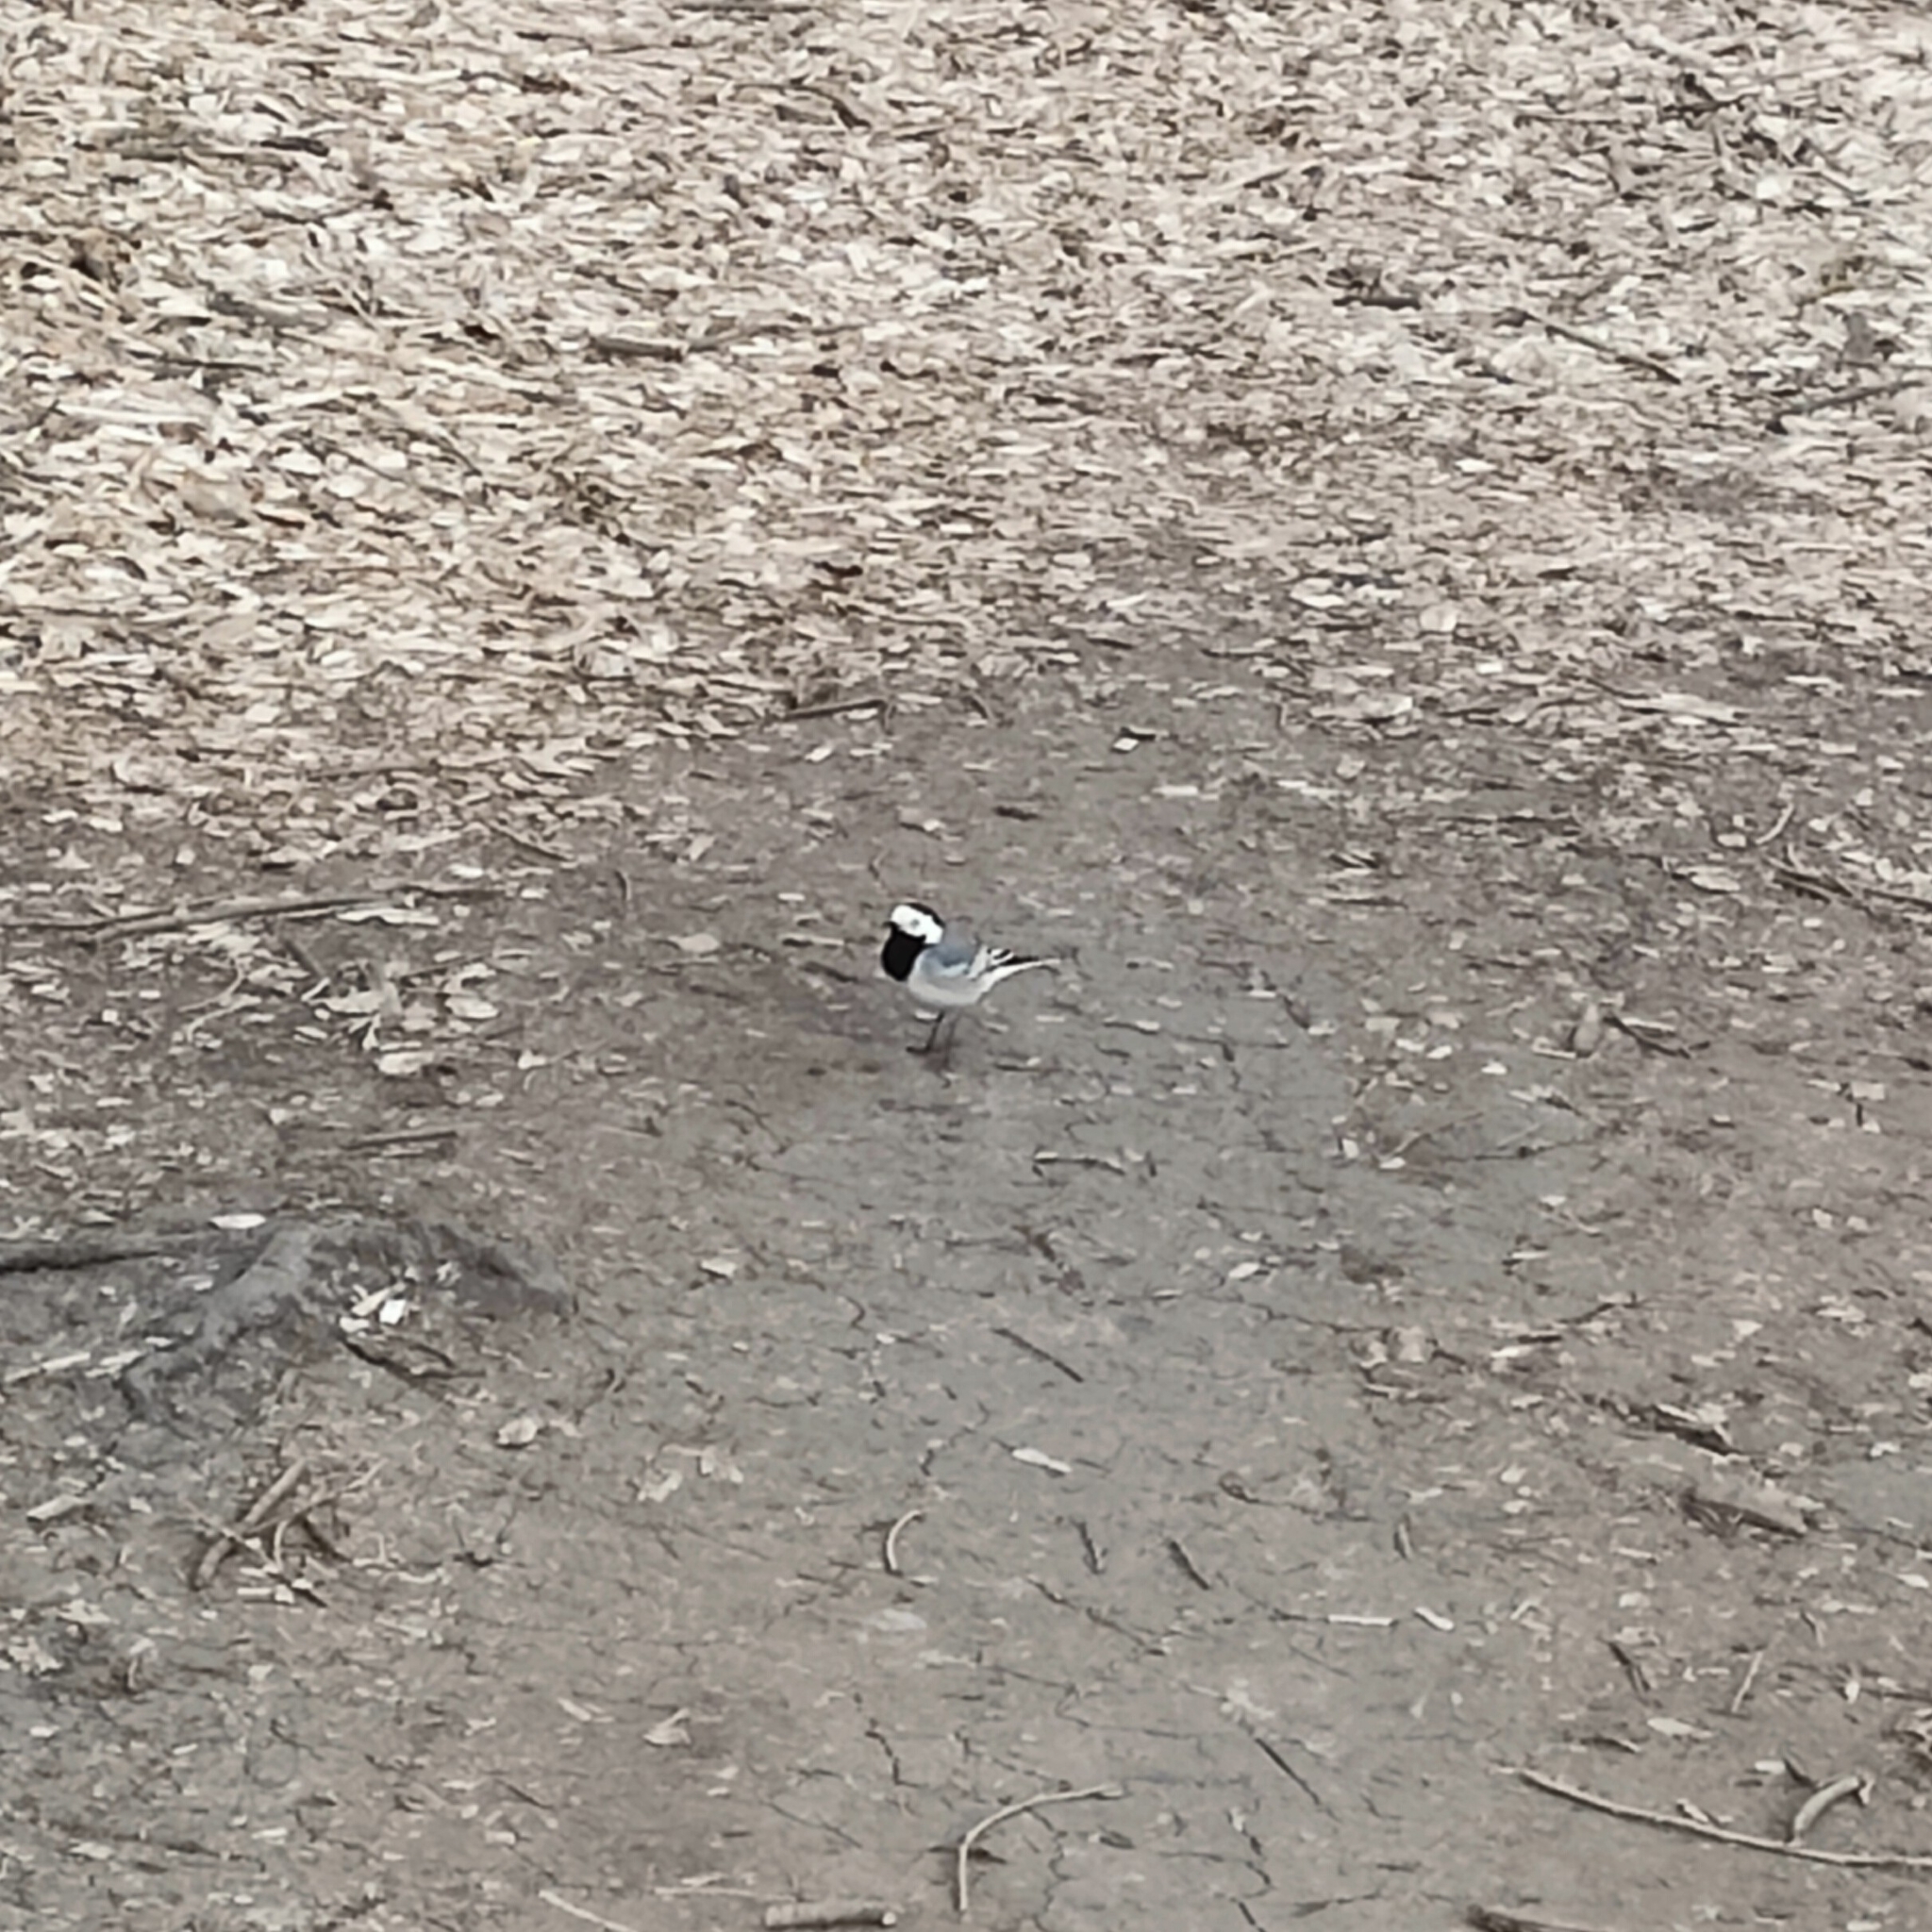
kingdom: Animalia
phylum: Chordata
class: Aves
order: Passeriformes
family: Motacillidae
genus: Motacilla
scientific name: Motacilla alba
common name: White wagtail
